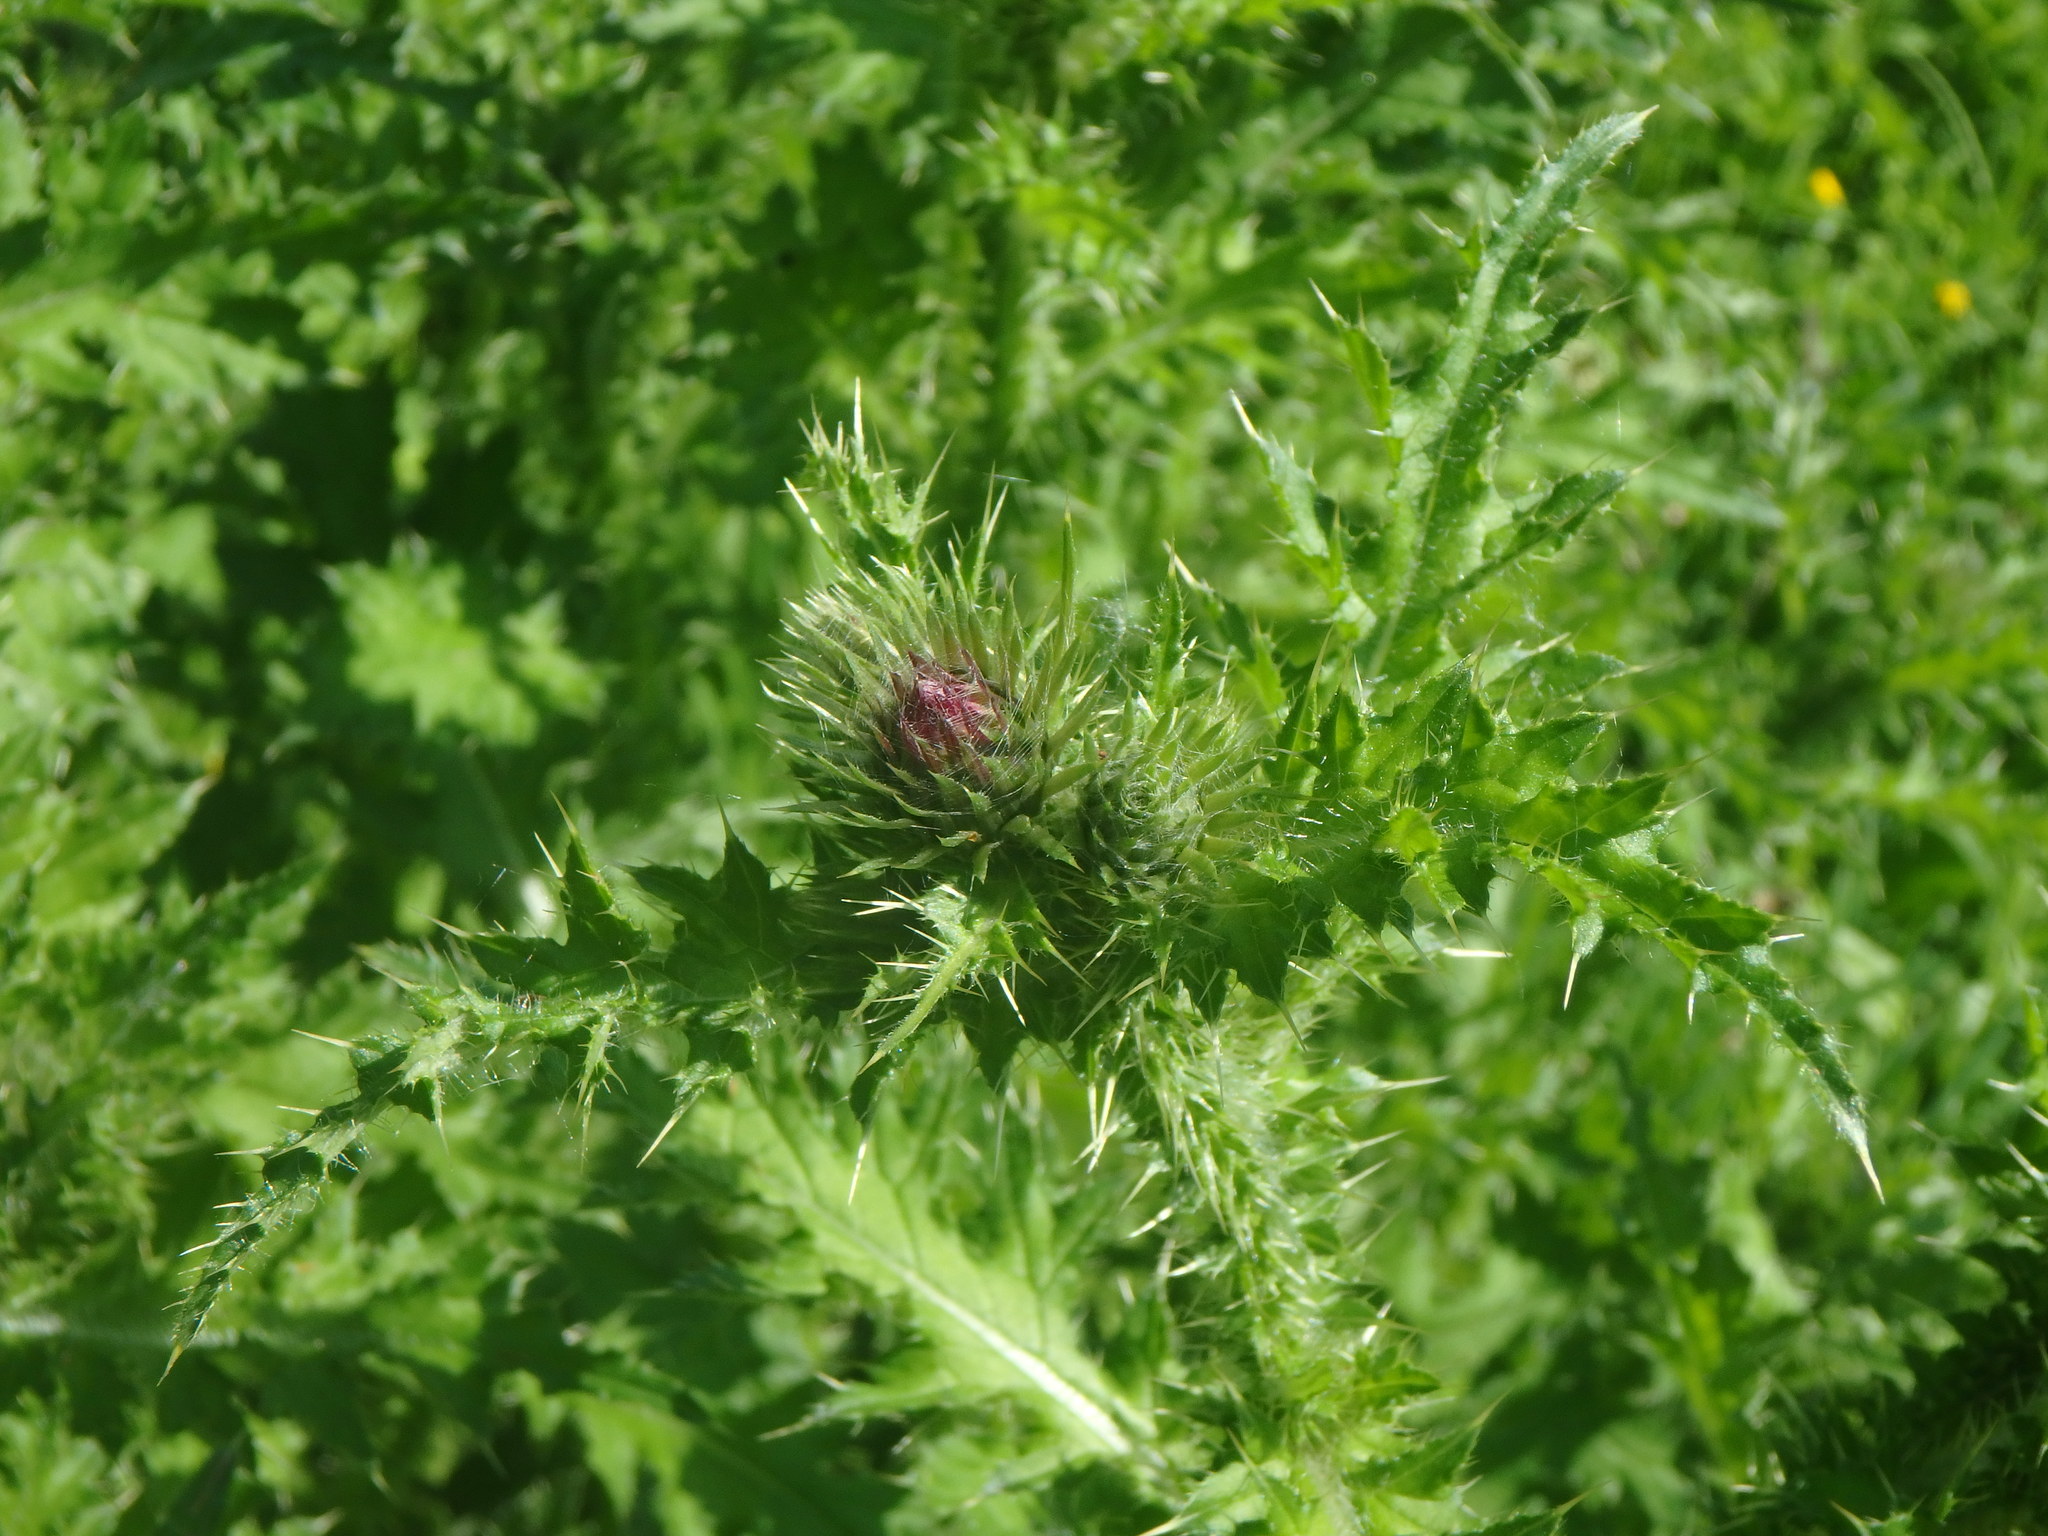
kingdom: Plantae
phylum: Tracheophyta
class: Magnoliopsida
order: Asterales
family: Asteraceae
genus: Carduus
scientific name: Carduus crispus
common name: Welted thistle
